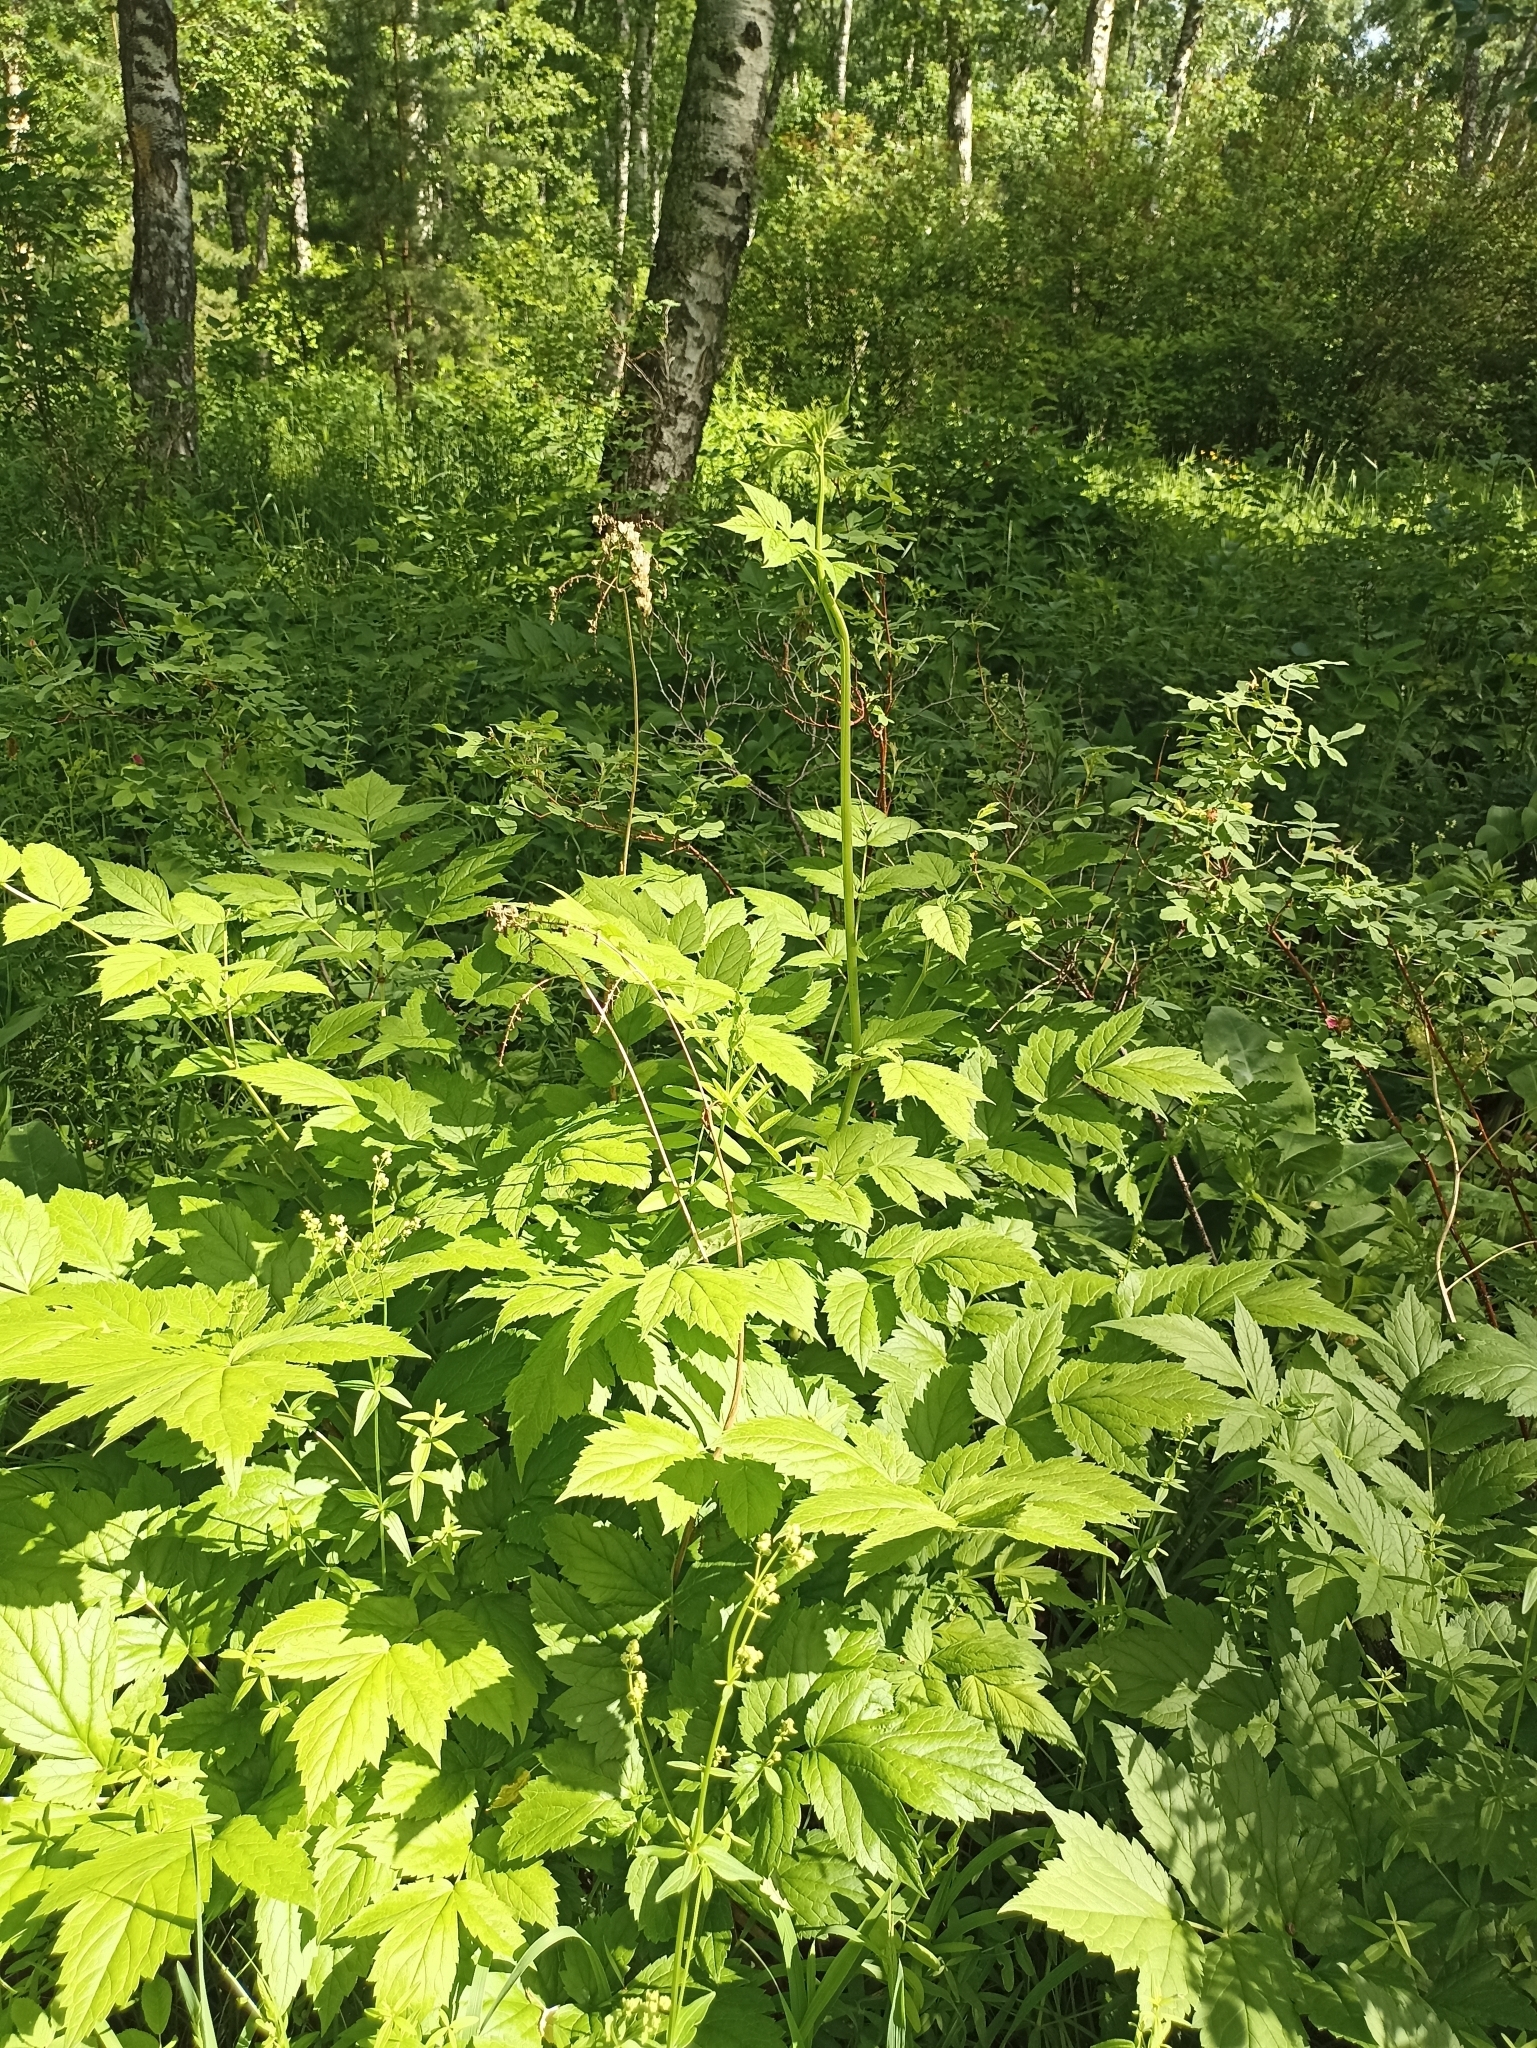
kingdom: Plantae
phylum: Tracheophyta
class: Magnoliopsida
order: Ranunculales
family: Ranunculaceae
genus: Actaea
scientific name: Actaea cimicifuga
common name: Chinese cimicifuga
